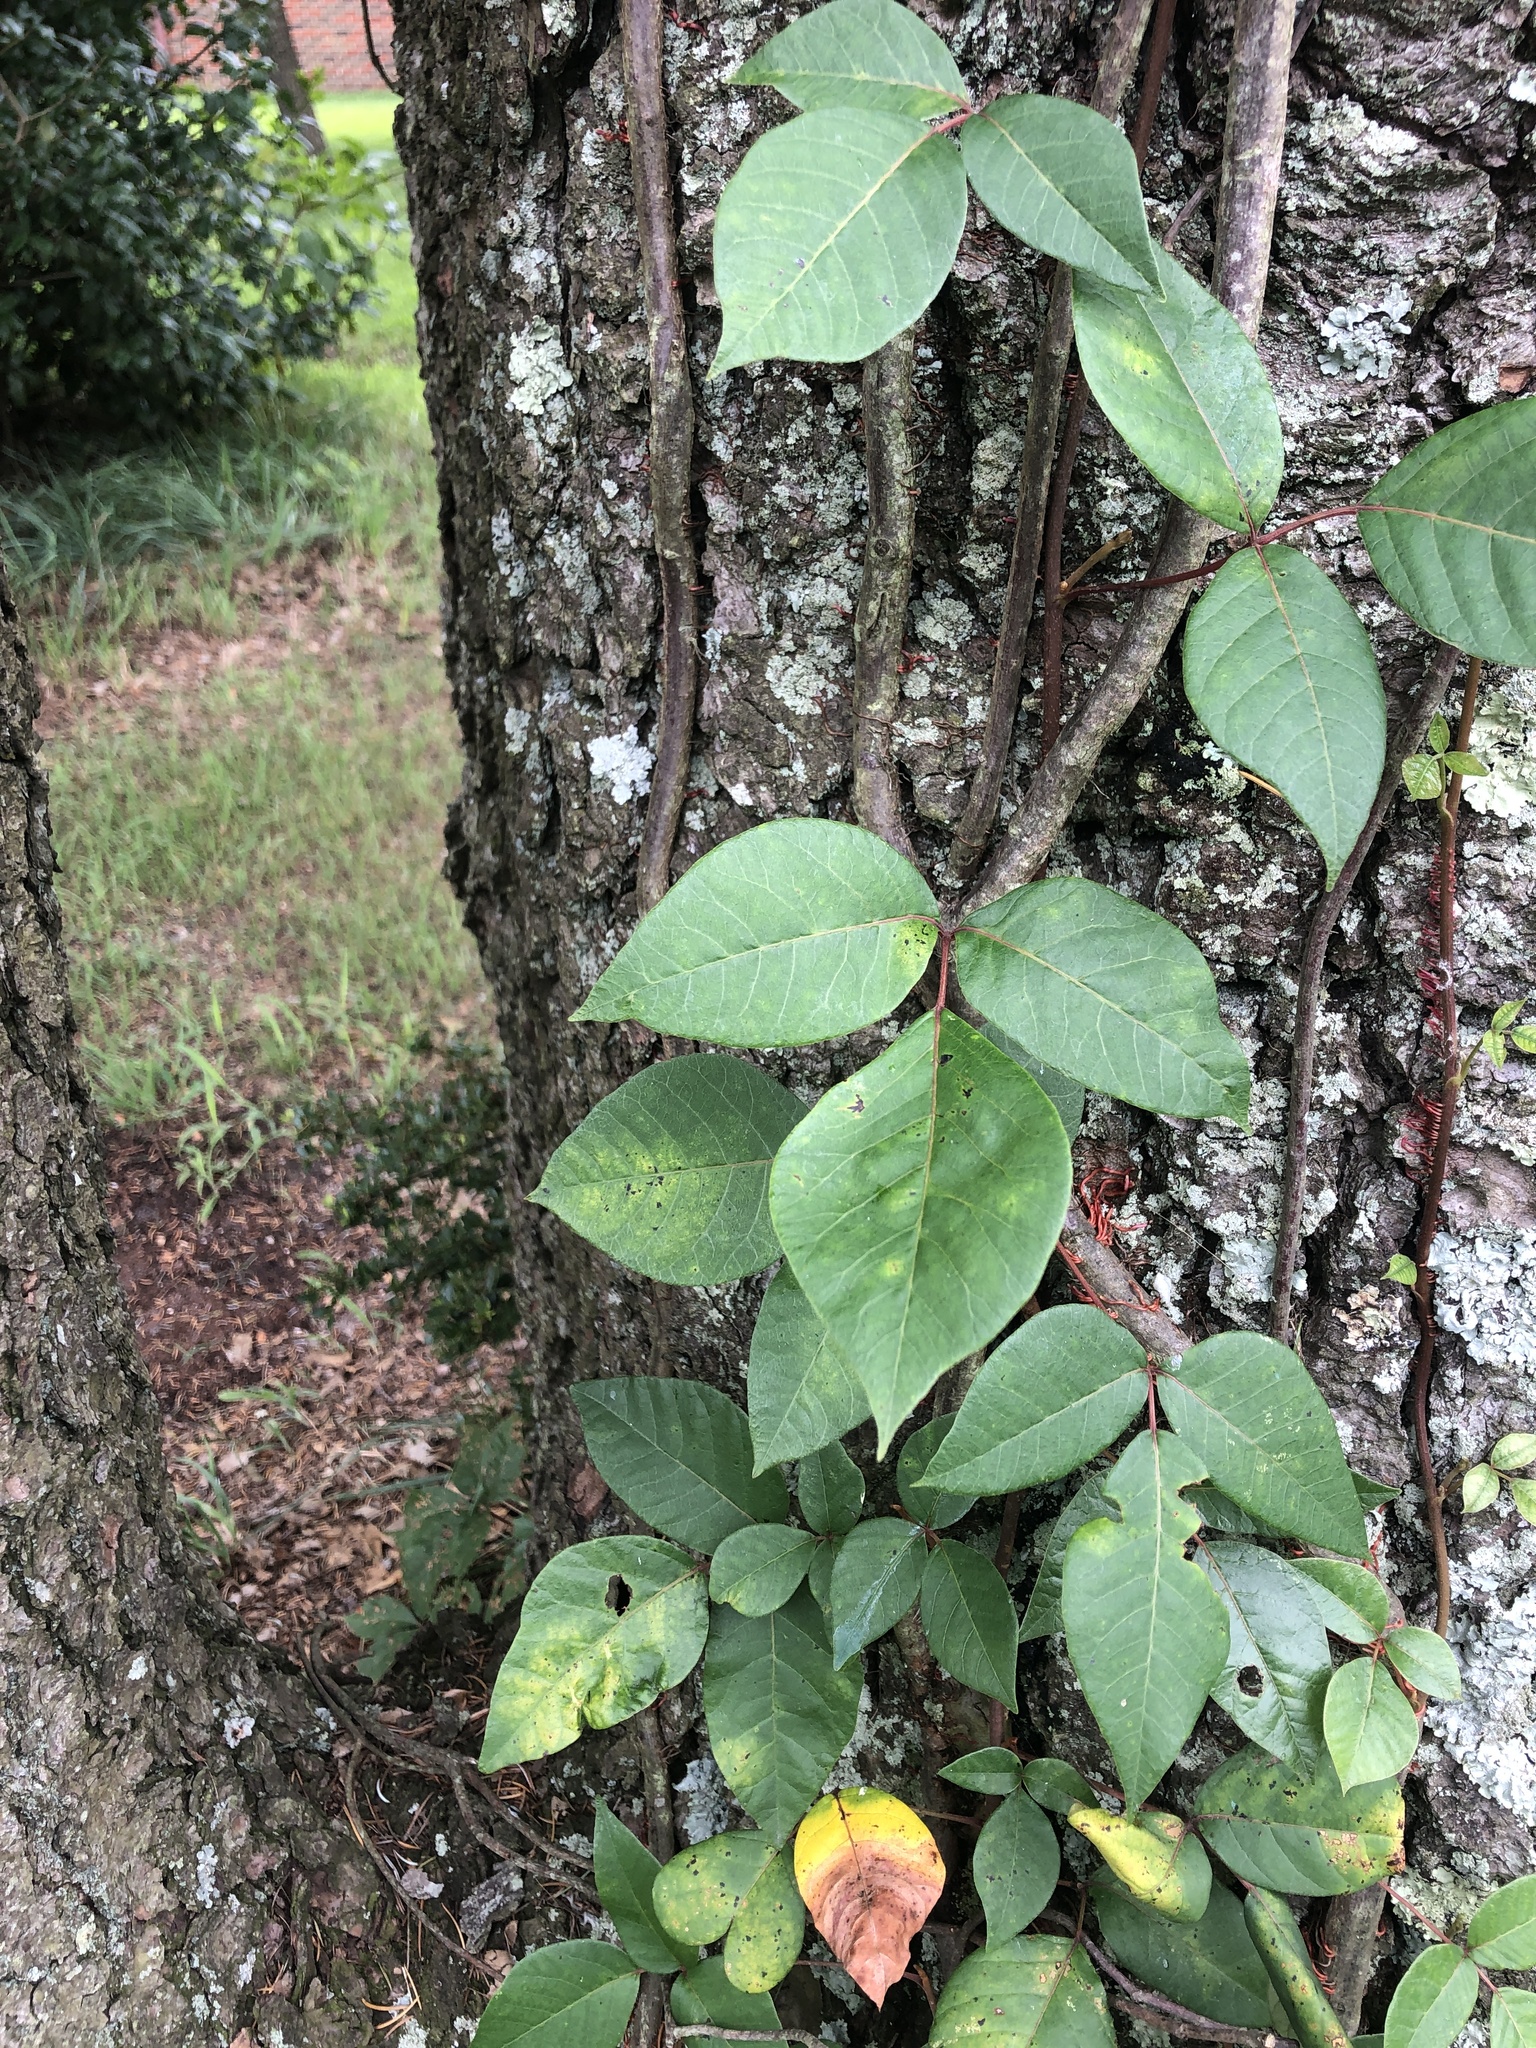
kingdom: Plantae
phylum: Tracheophyta
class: Magnoliopsida
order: Sapindales
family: Anacardiaceae
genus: Toxicodendron
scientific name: Toxicodendron radicans
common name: Poison ivy
